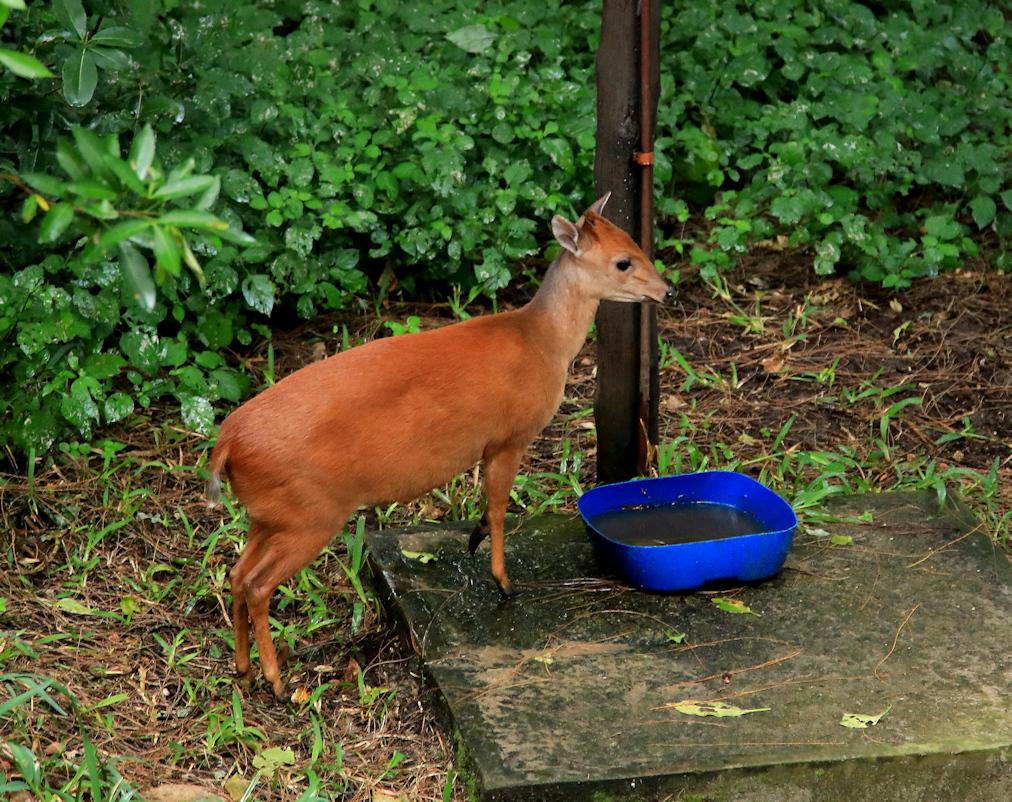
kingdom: Animalia
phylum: Chordata
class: Mammalia
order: Artiodactyla
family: Bovidae
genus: Cephalophus
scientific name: Cephalophus natalensis
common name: Red duiker
